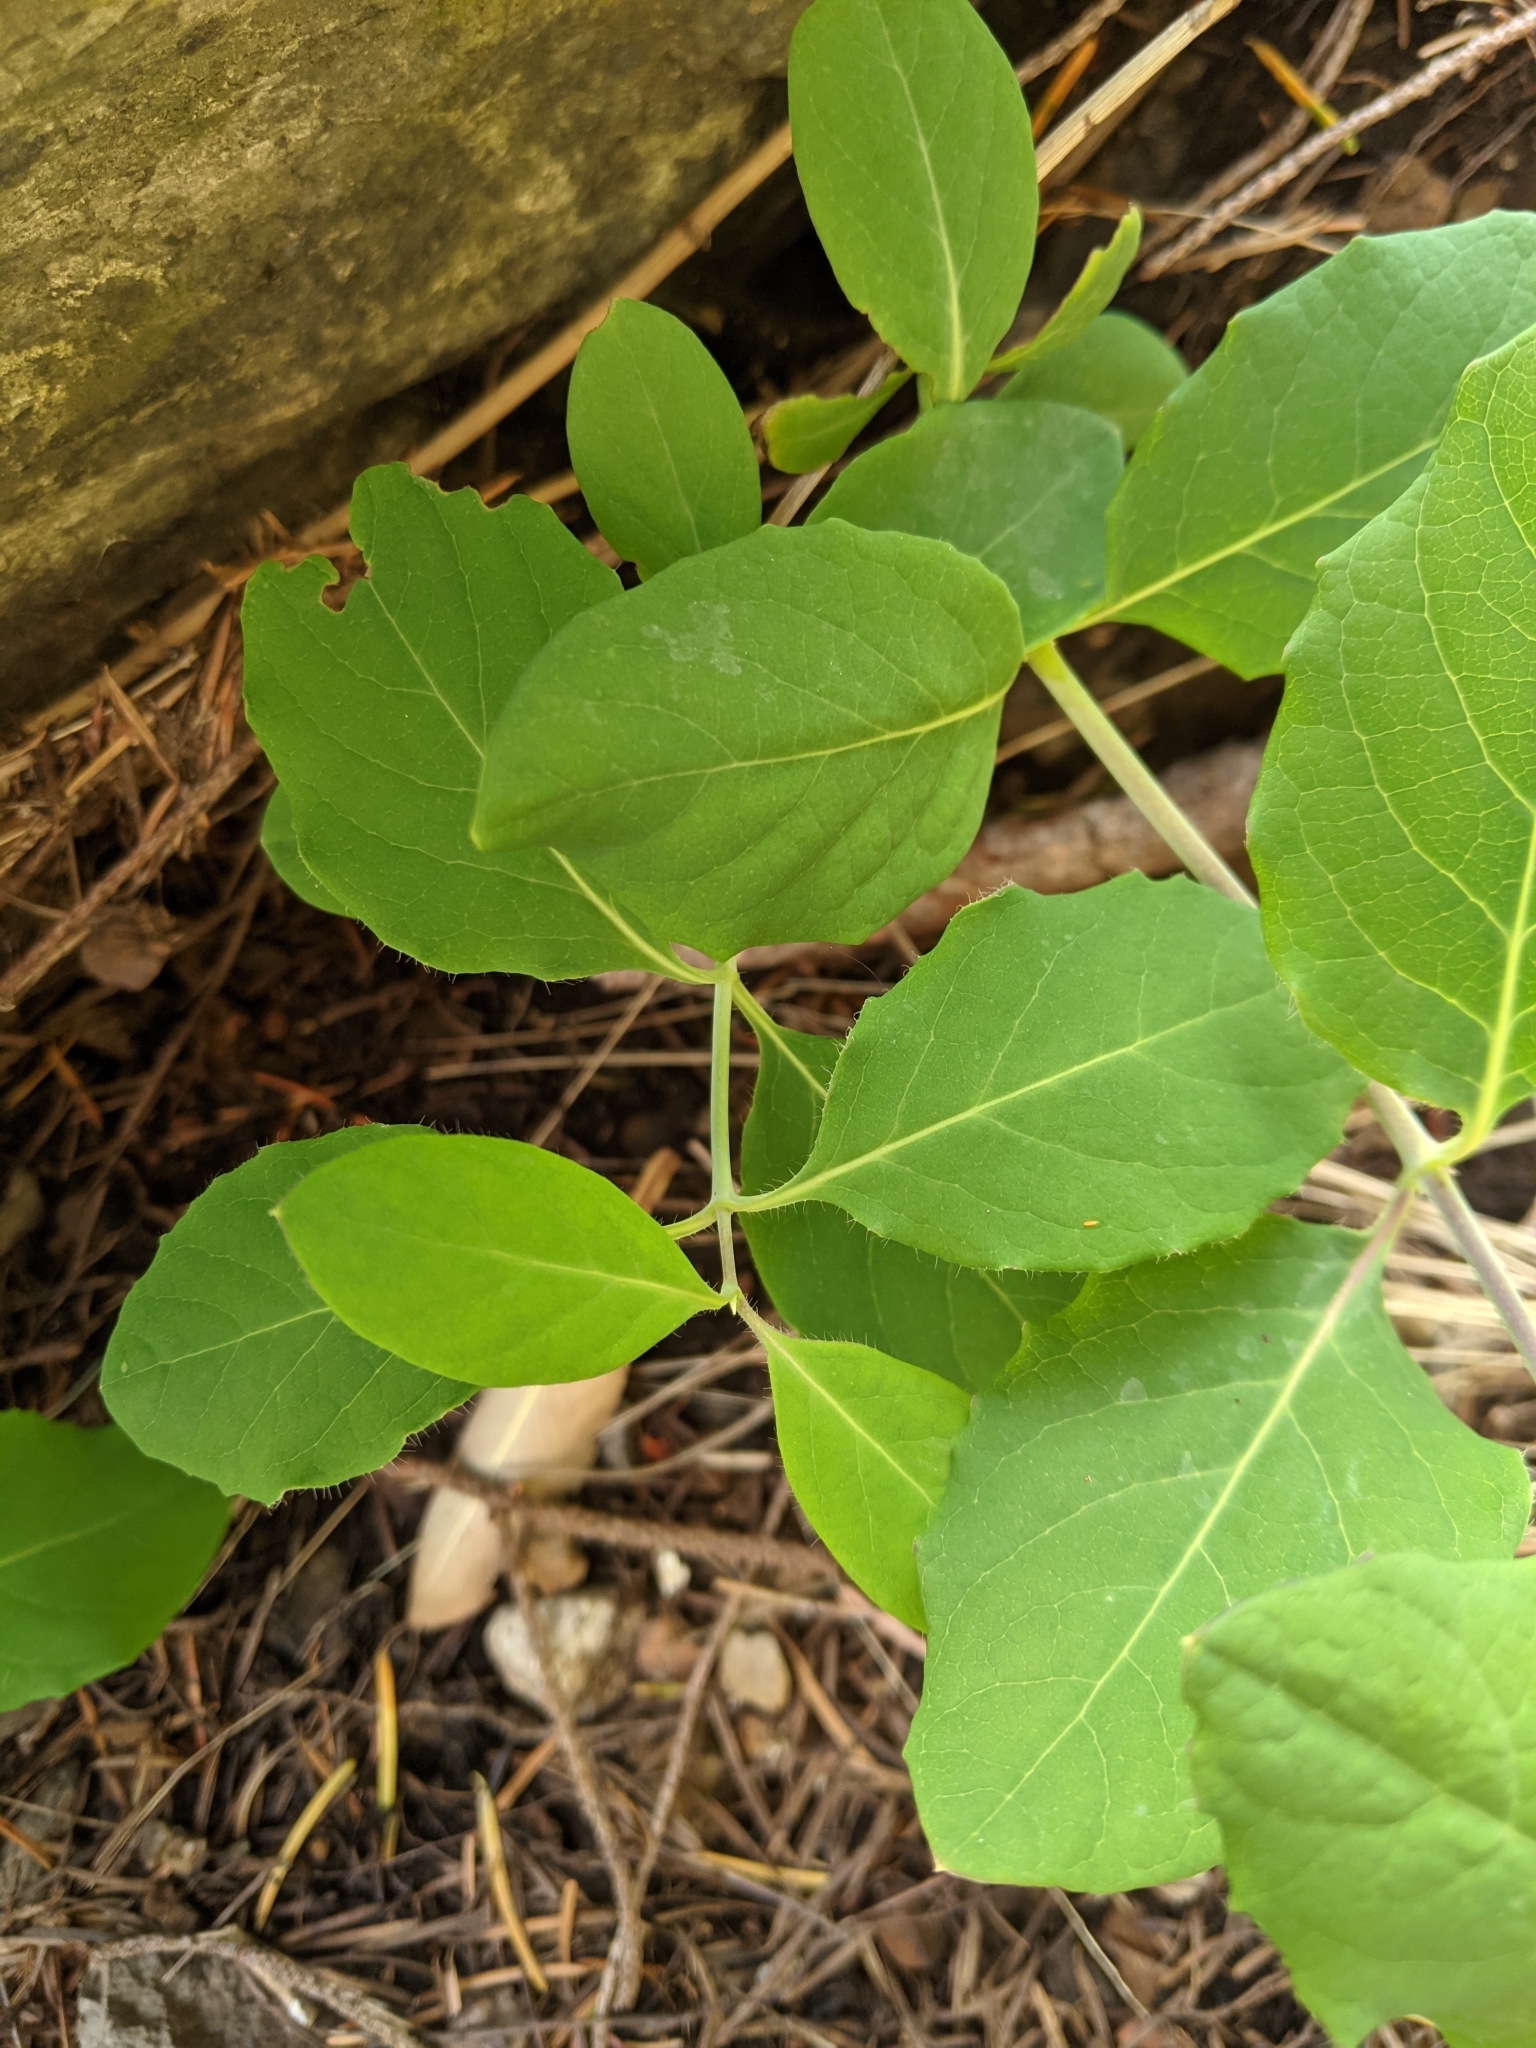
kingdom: Plantae
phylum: Tracheophyta
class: Magnoliopsida
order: Dipsacales
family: Caprifoliaceae
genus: Lonicera
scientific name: Lonicera ciliosa
